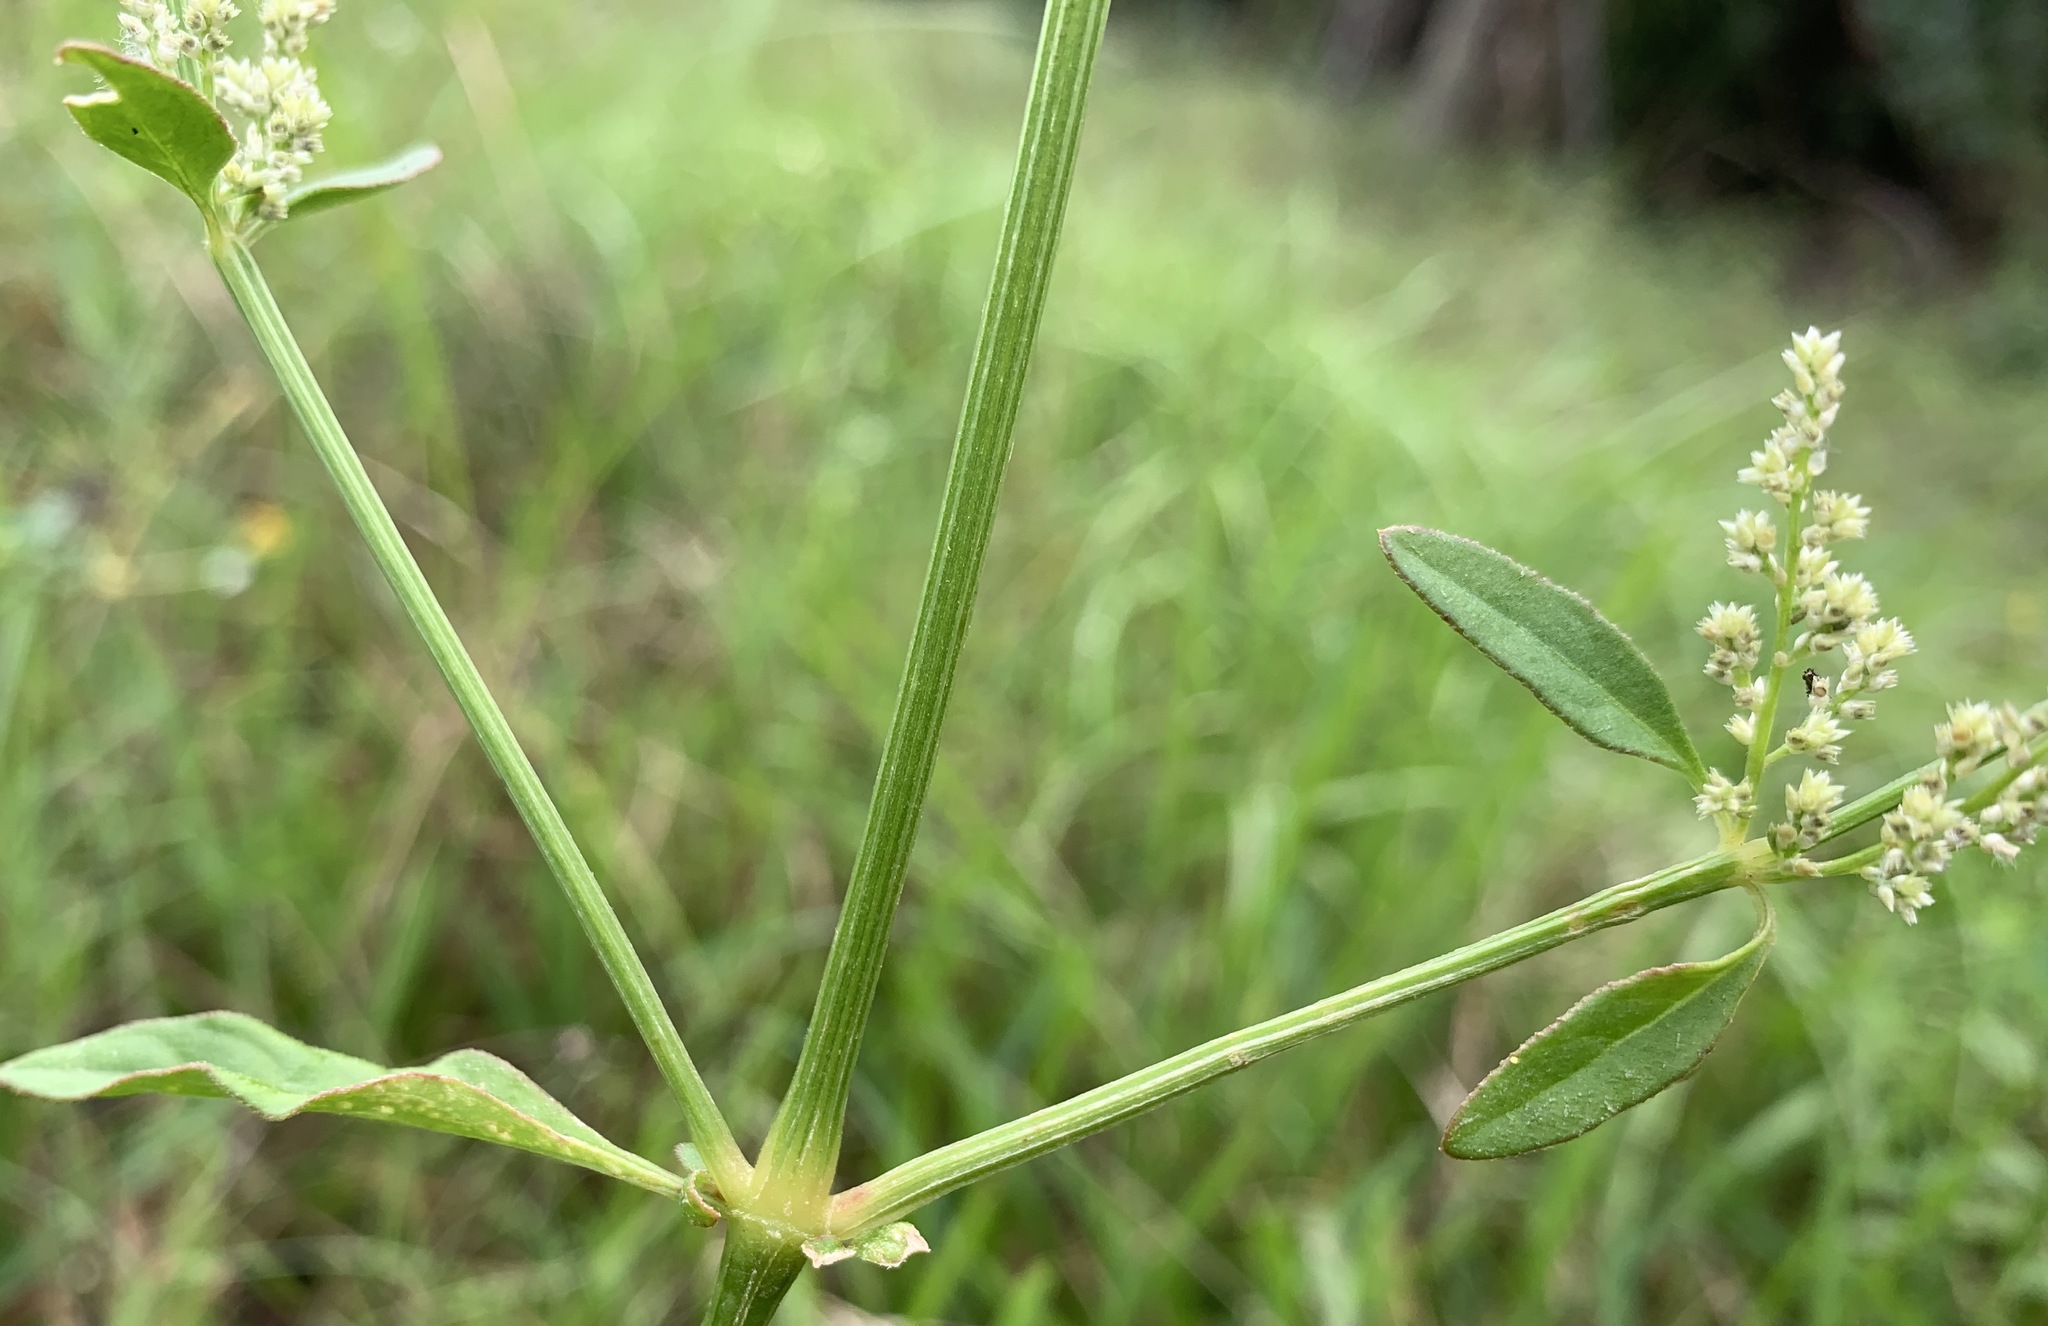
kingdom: Plantae
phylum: Tracheophyta
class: Magnoliopsida
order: Caryophyllales
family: Amaranthaceae
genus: Iresine
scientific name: Iresine diffusa
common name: Juba's-bush
